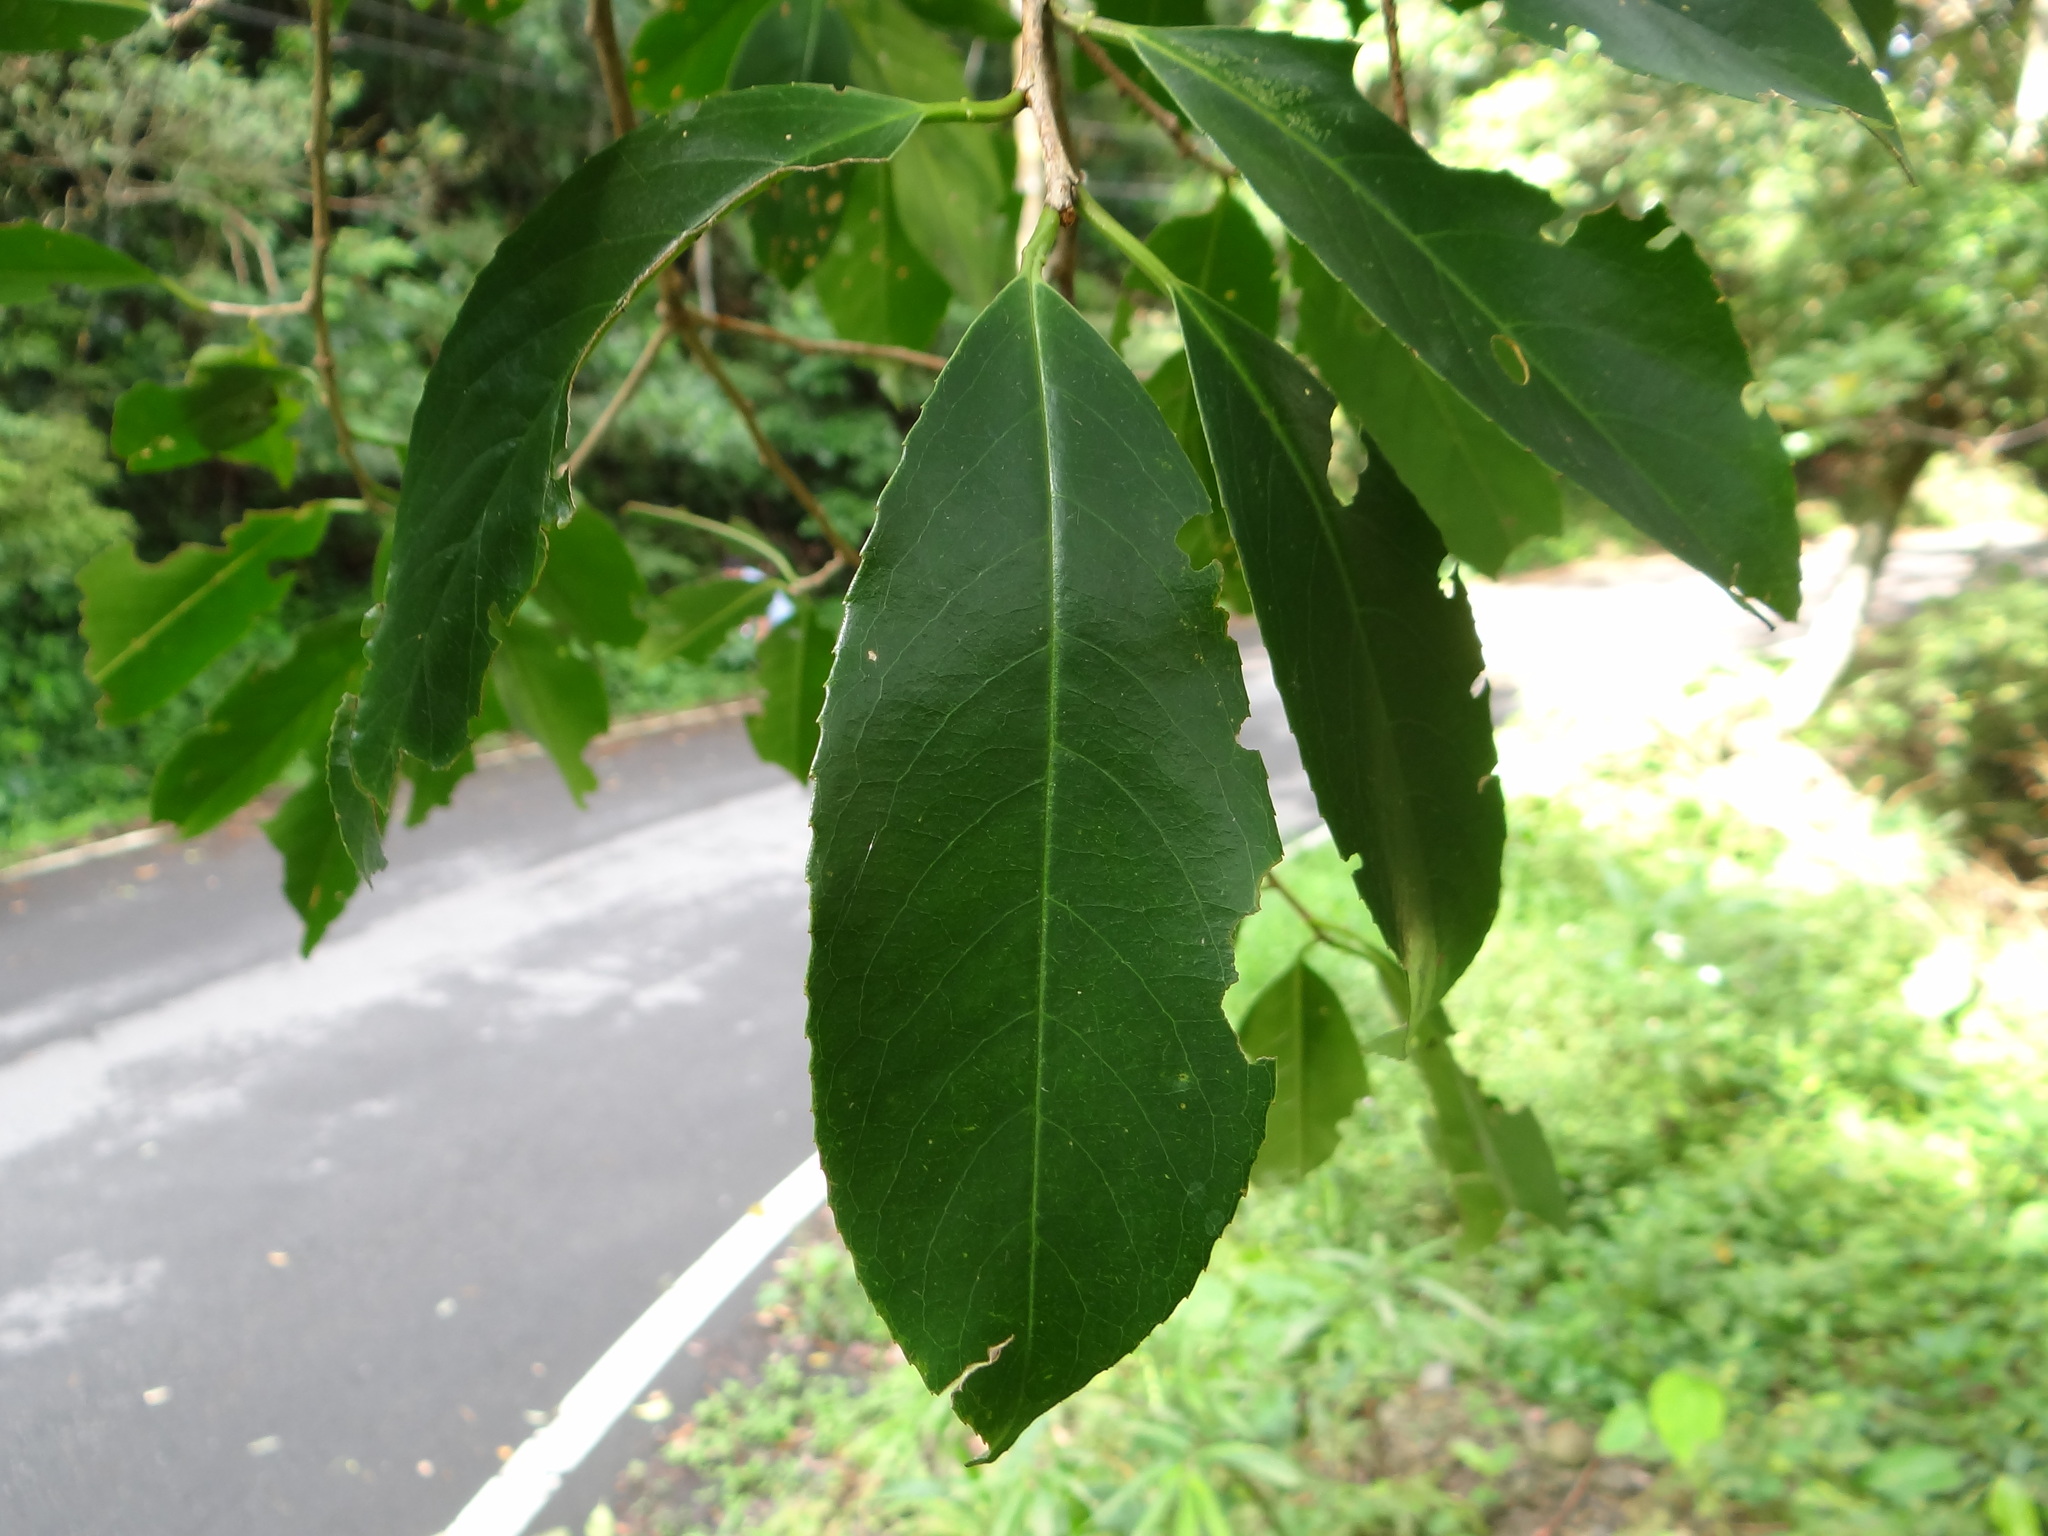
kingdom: Plantae
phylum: Tracheophyta
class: Magnoliopsida
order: Rosales
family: Rosaceae
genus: Prunus
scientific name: Prunus zippeliana
